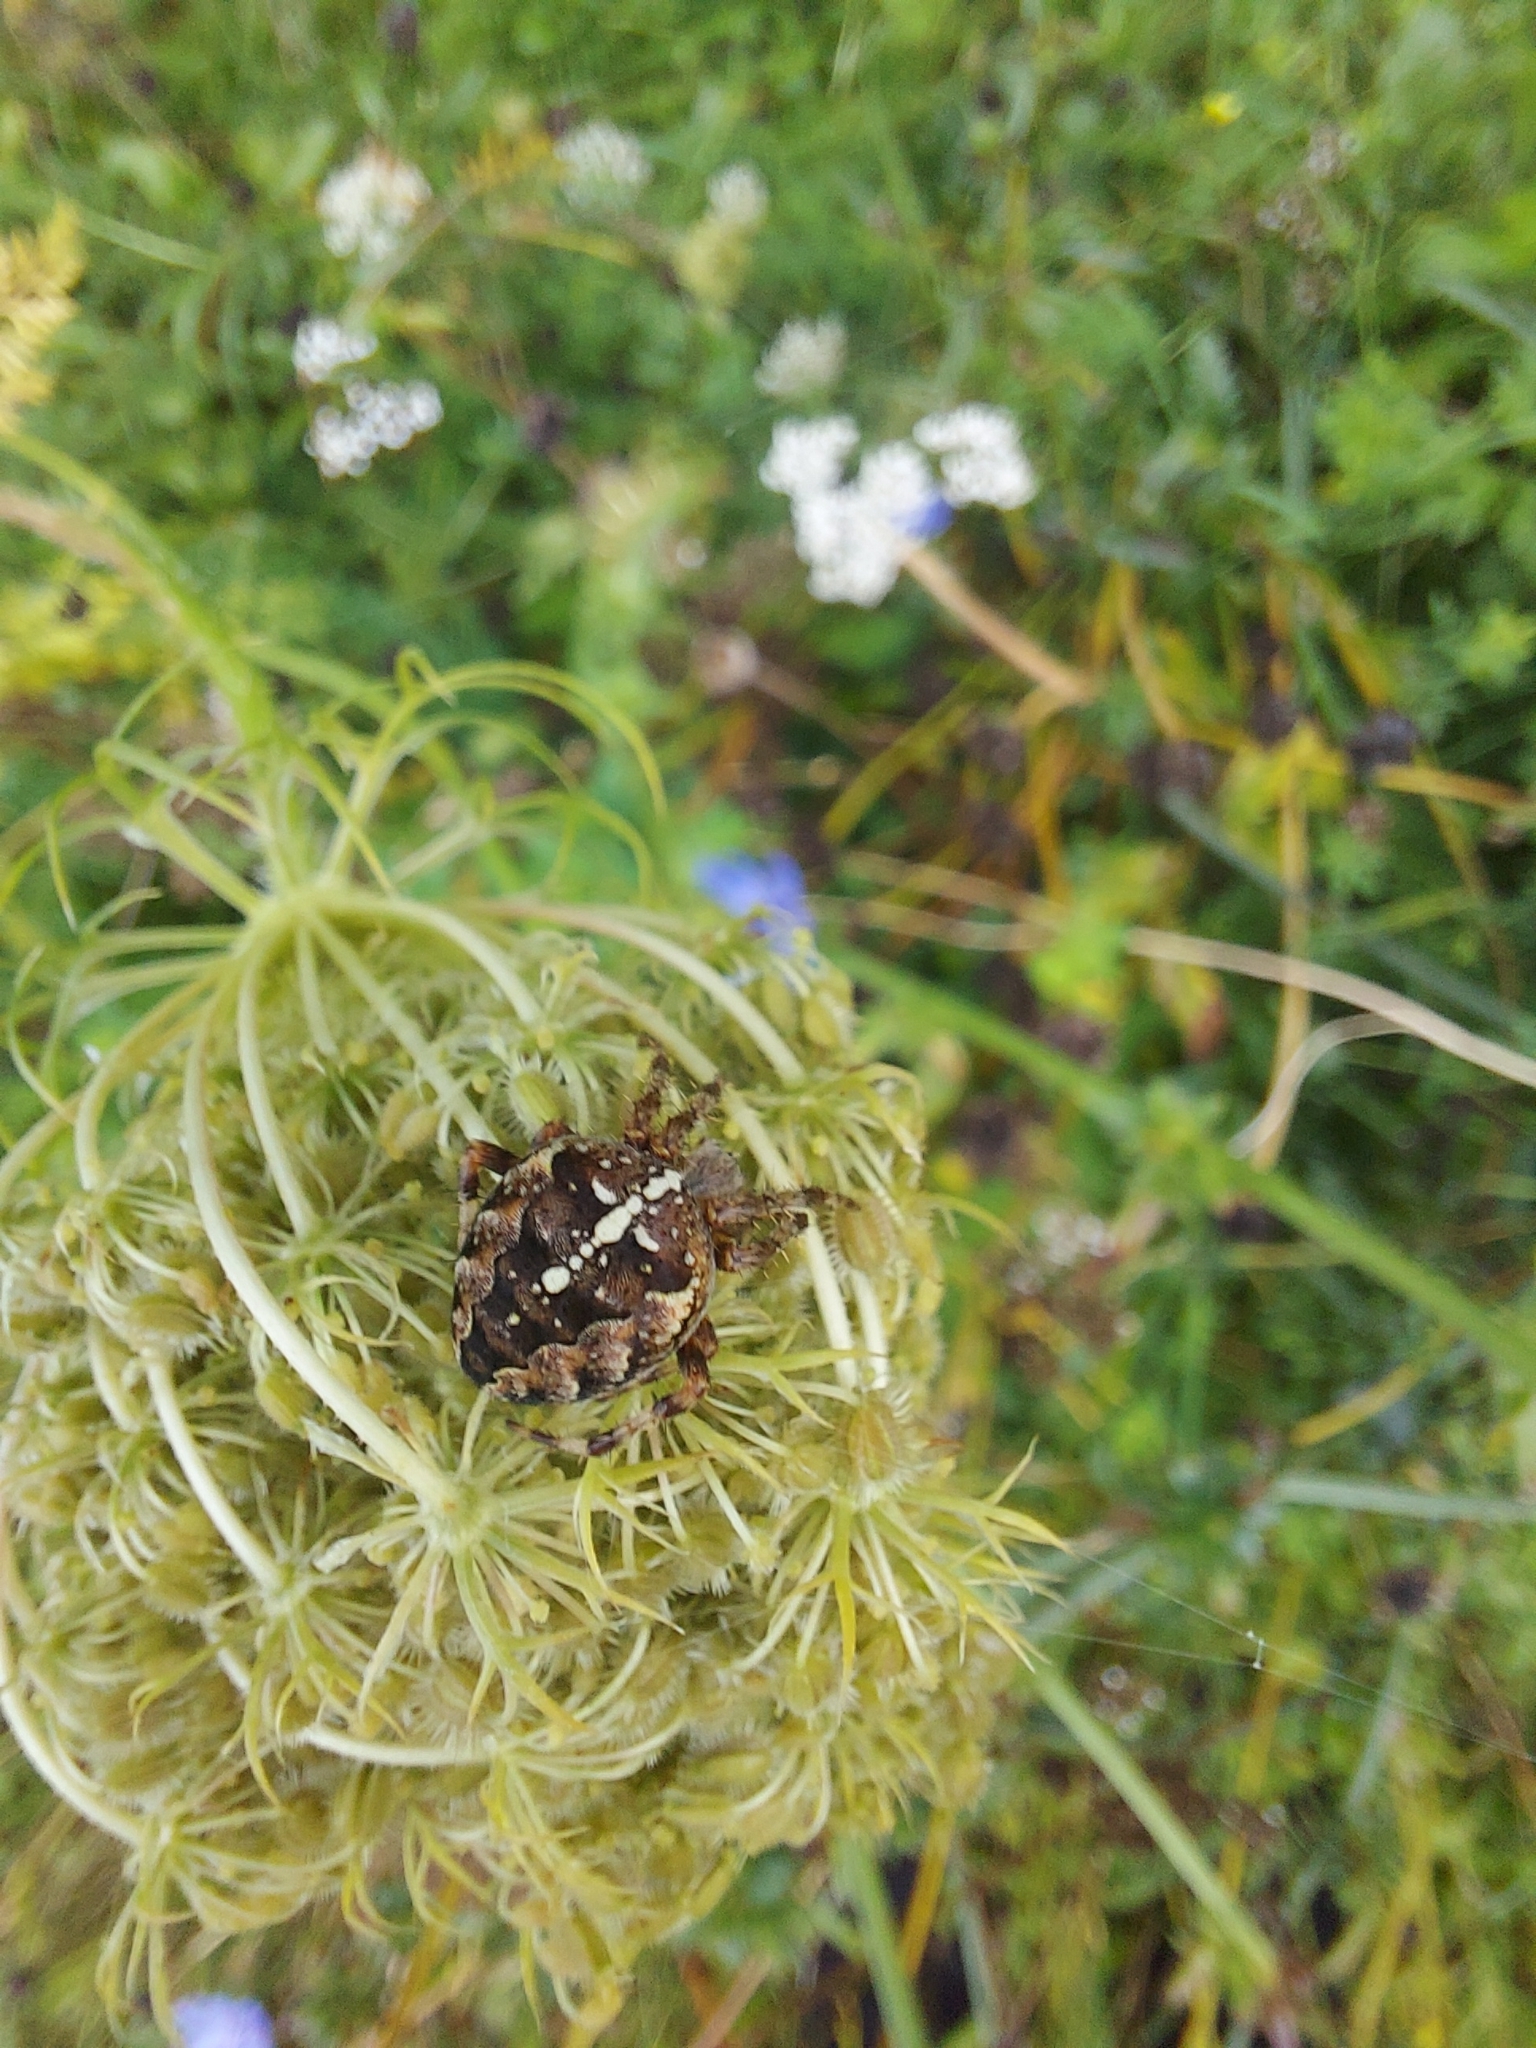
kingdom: Animalia
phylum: Arthropoda
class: Arachnida
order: Araneae
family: Araneidae
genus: Araneus
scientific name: Araneus diadematus
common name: Cross orbweaver
